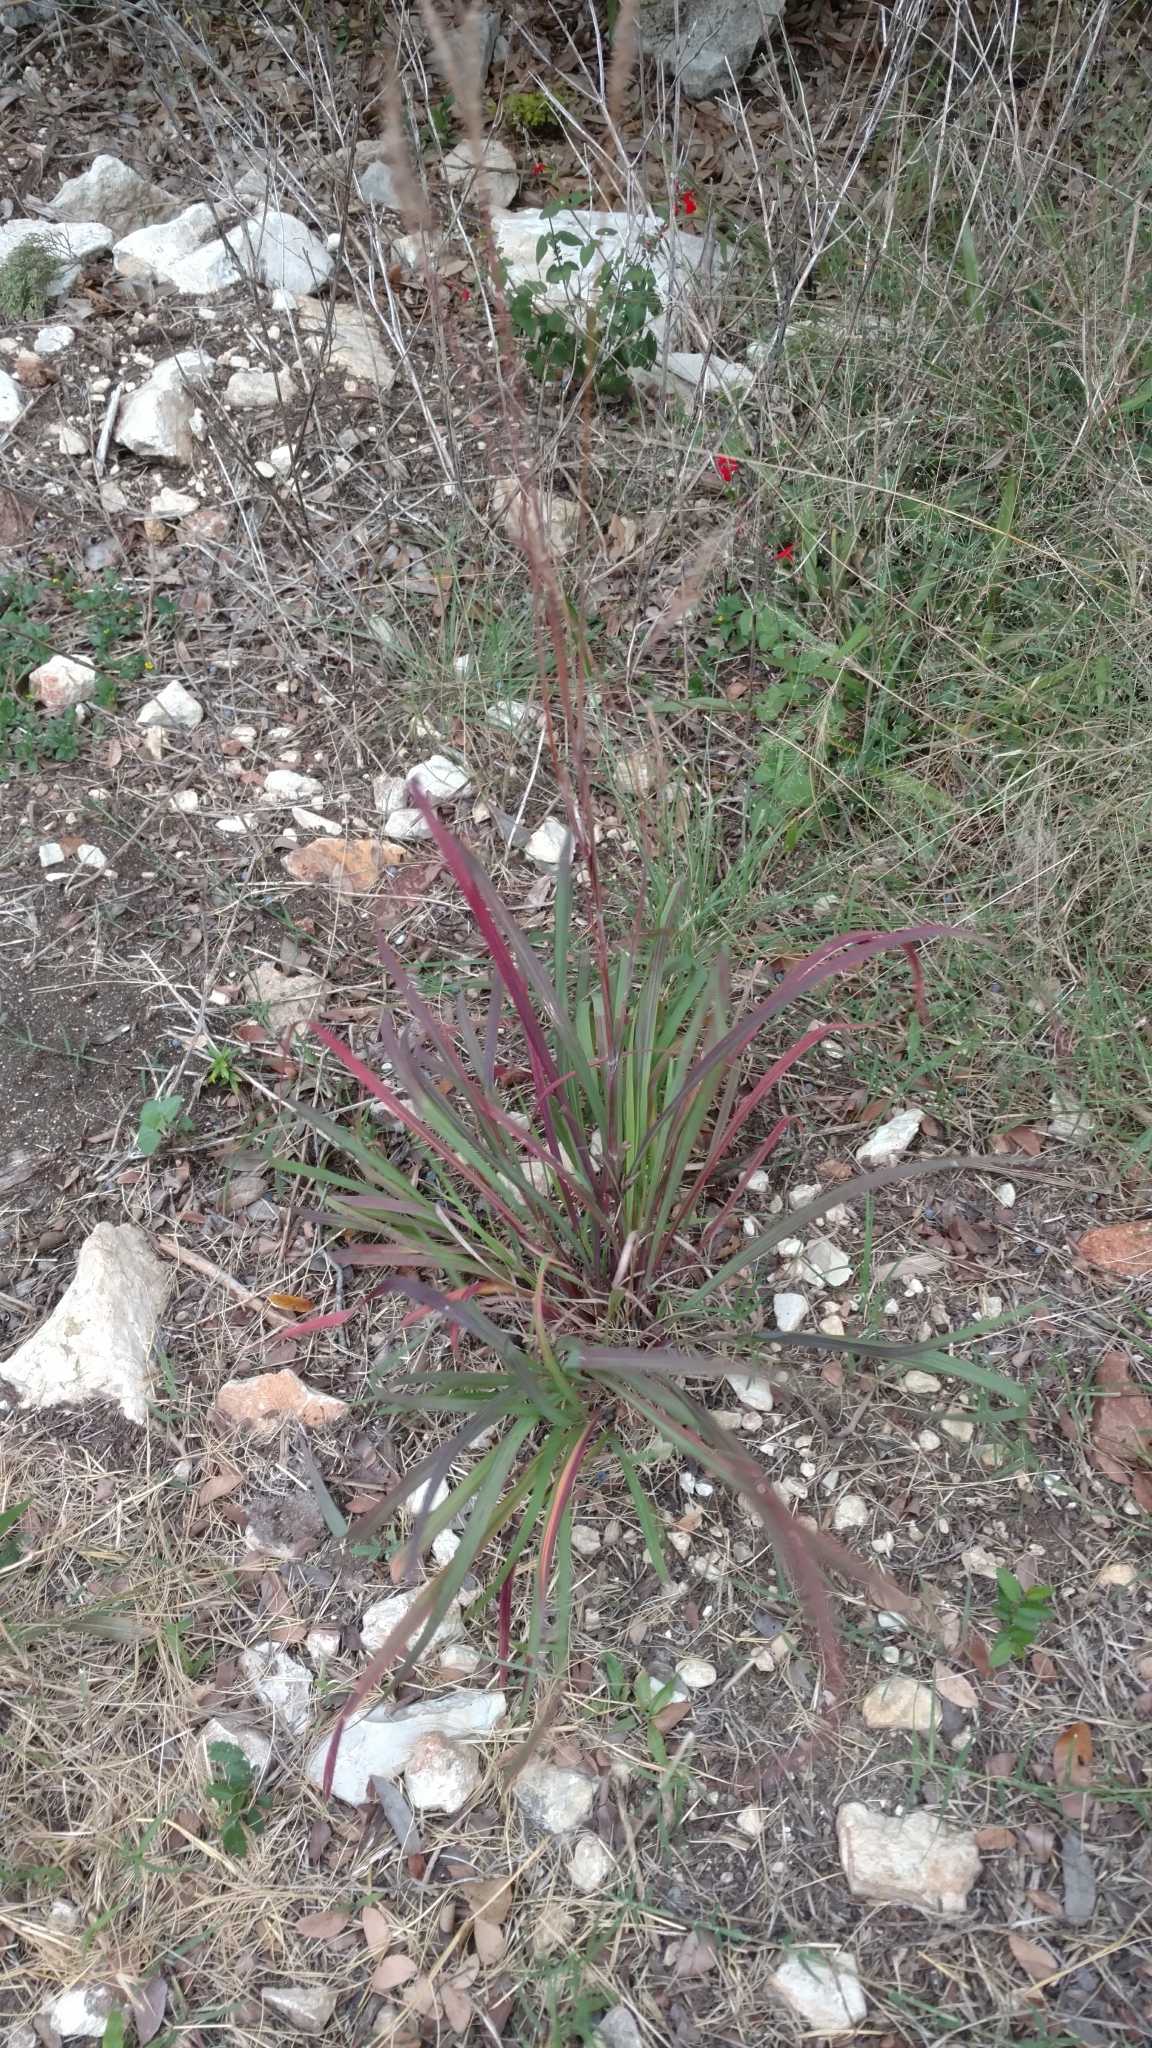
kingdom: Plantae
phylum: Tracheophyta
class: Liliopsida
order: Poales
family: Poaceae
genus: Andropogon
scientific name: Andropogon gerardi
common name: Big bluestem
